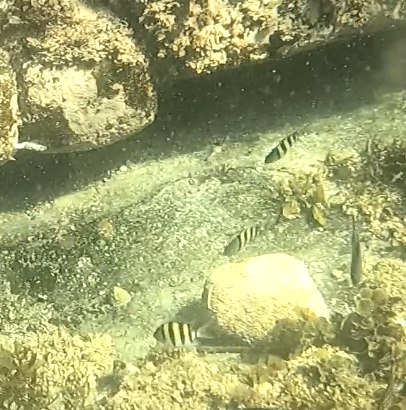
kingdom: Animalia
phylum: Chordata
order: Perciformes
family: Pomacentridae
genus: Abudefduf
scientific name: Abudefduf vaigiensis
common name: Indo-pacific sergeant
